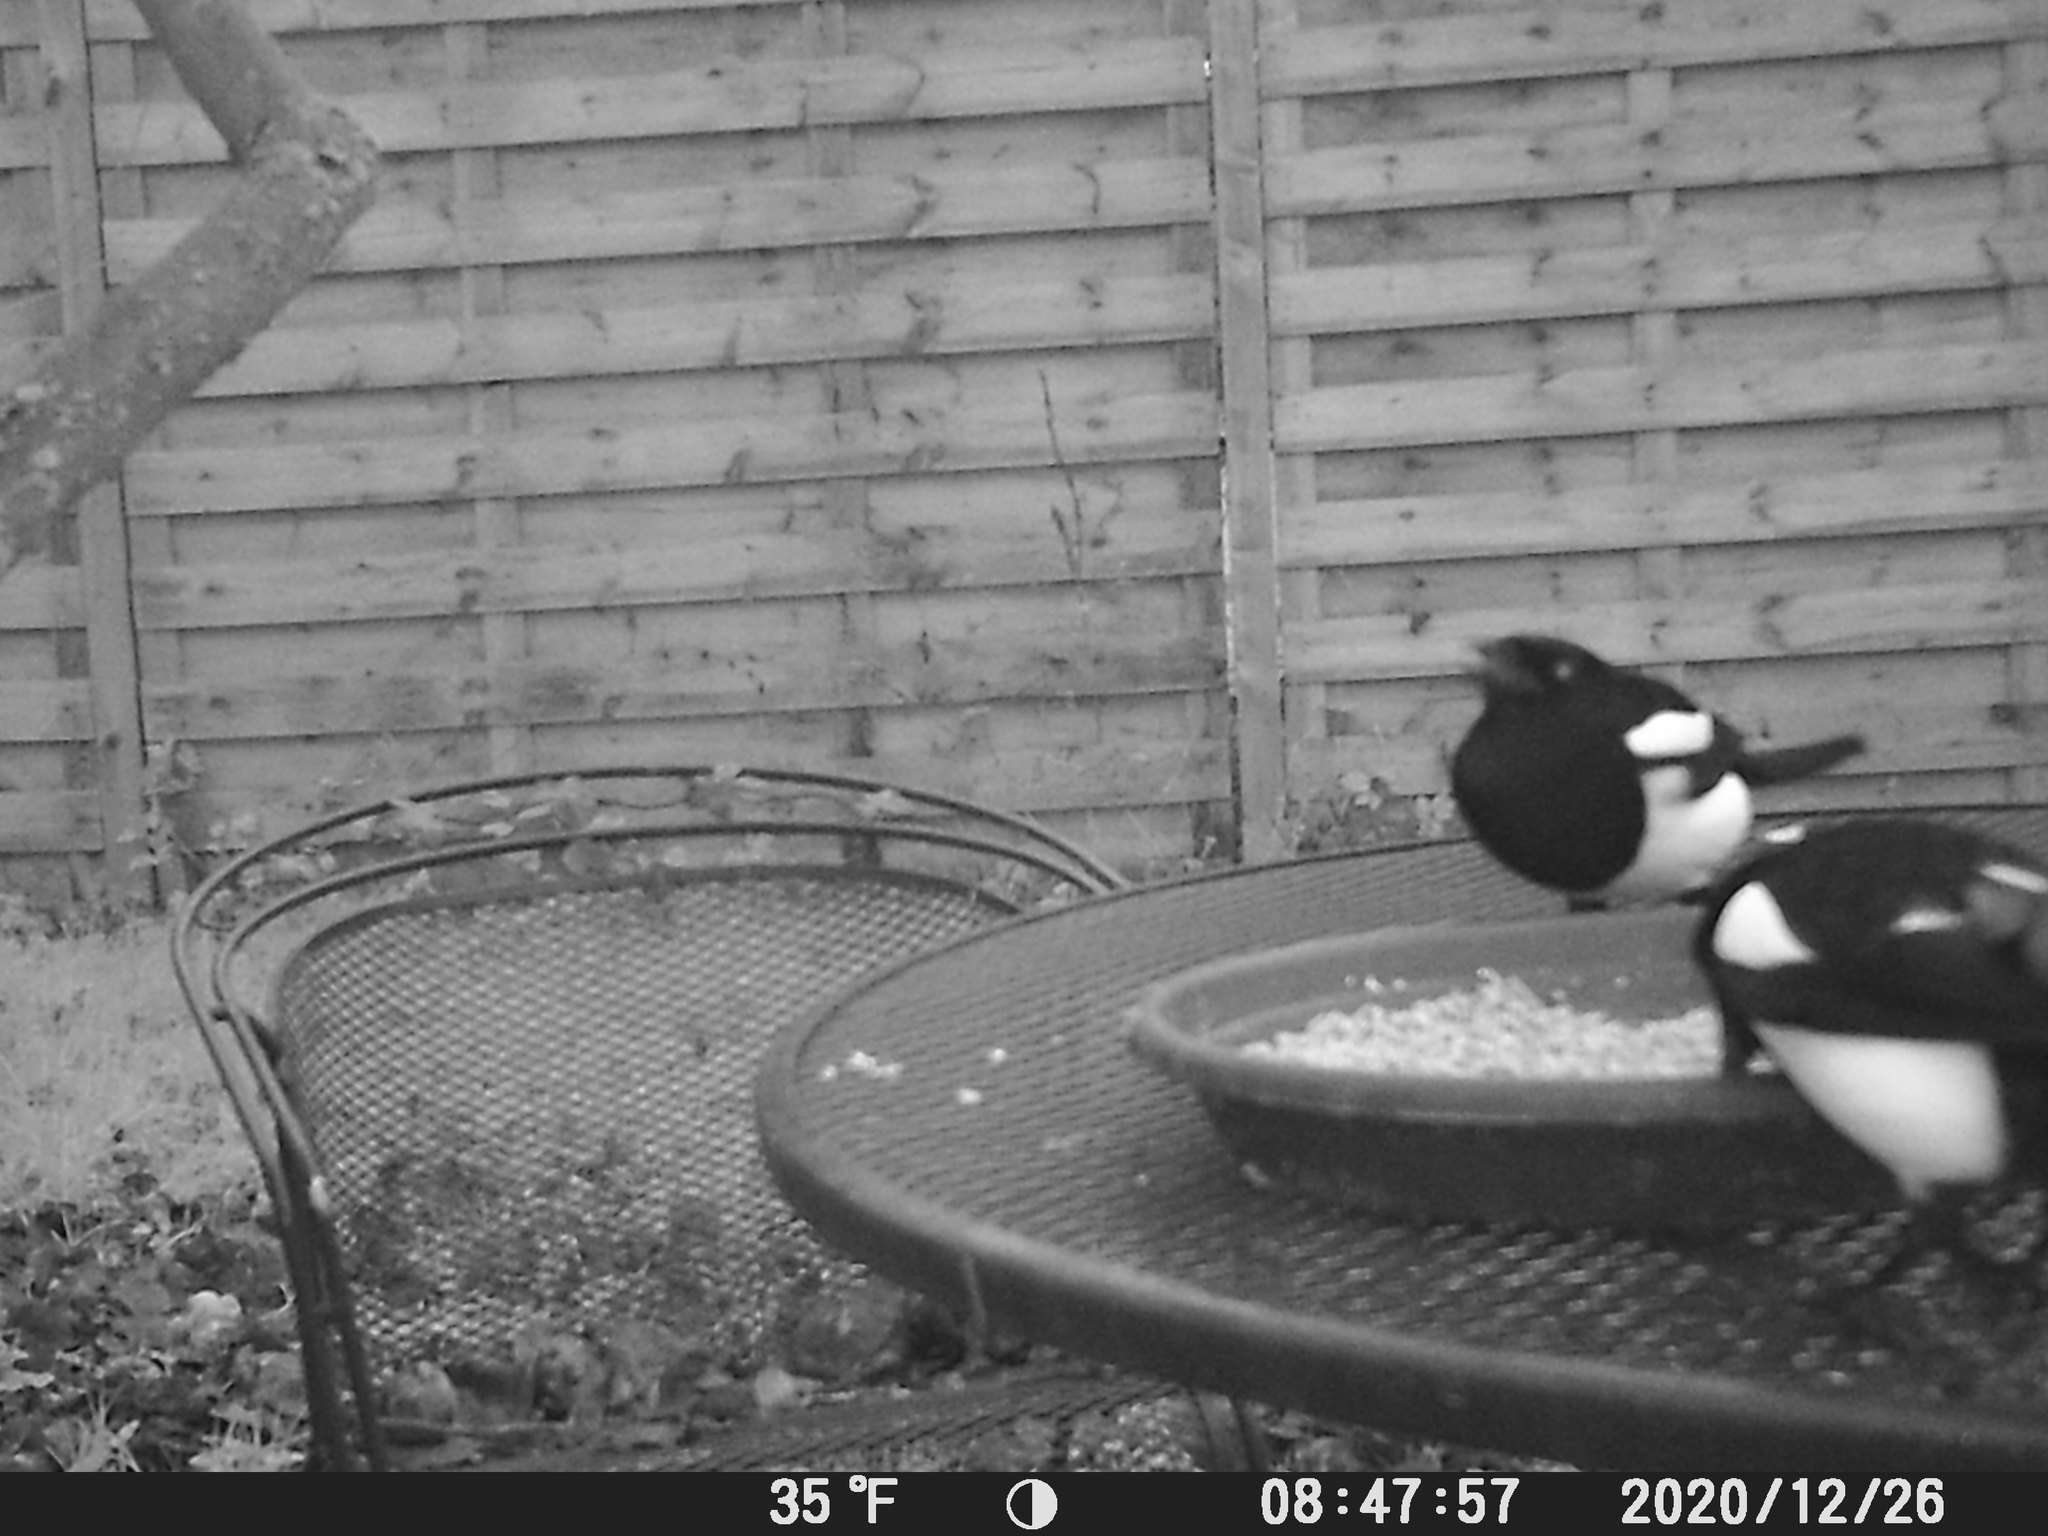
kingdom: Animalia
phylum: Chordata
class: Aves
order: Passeriformes
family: Corvidae
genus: Pica
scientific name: Pica pica
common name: Eurasian magpie
